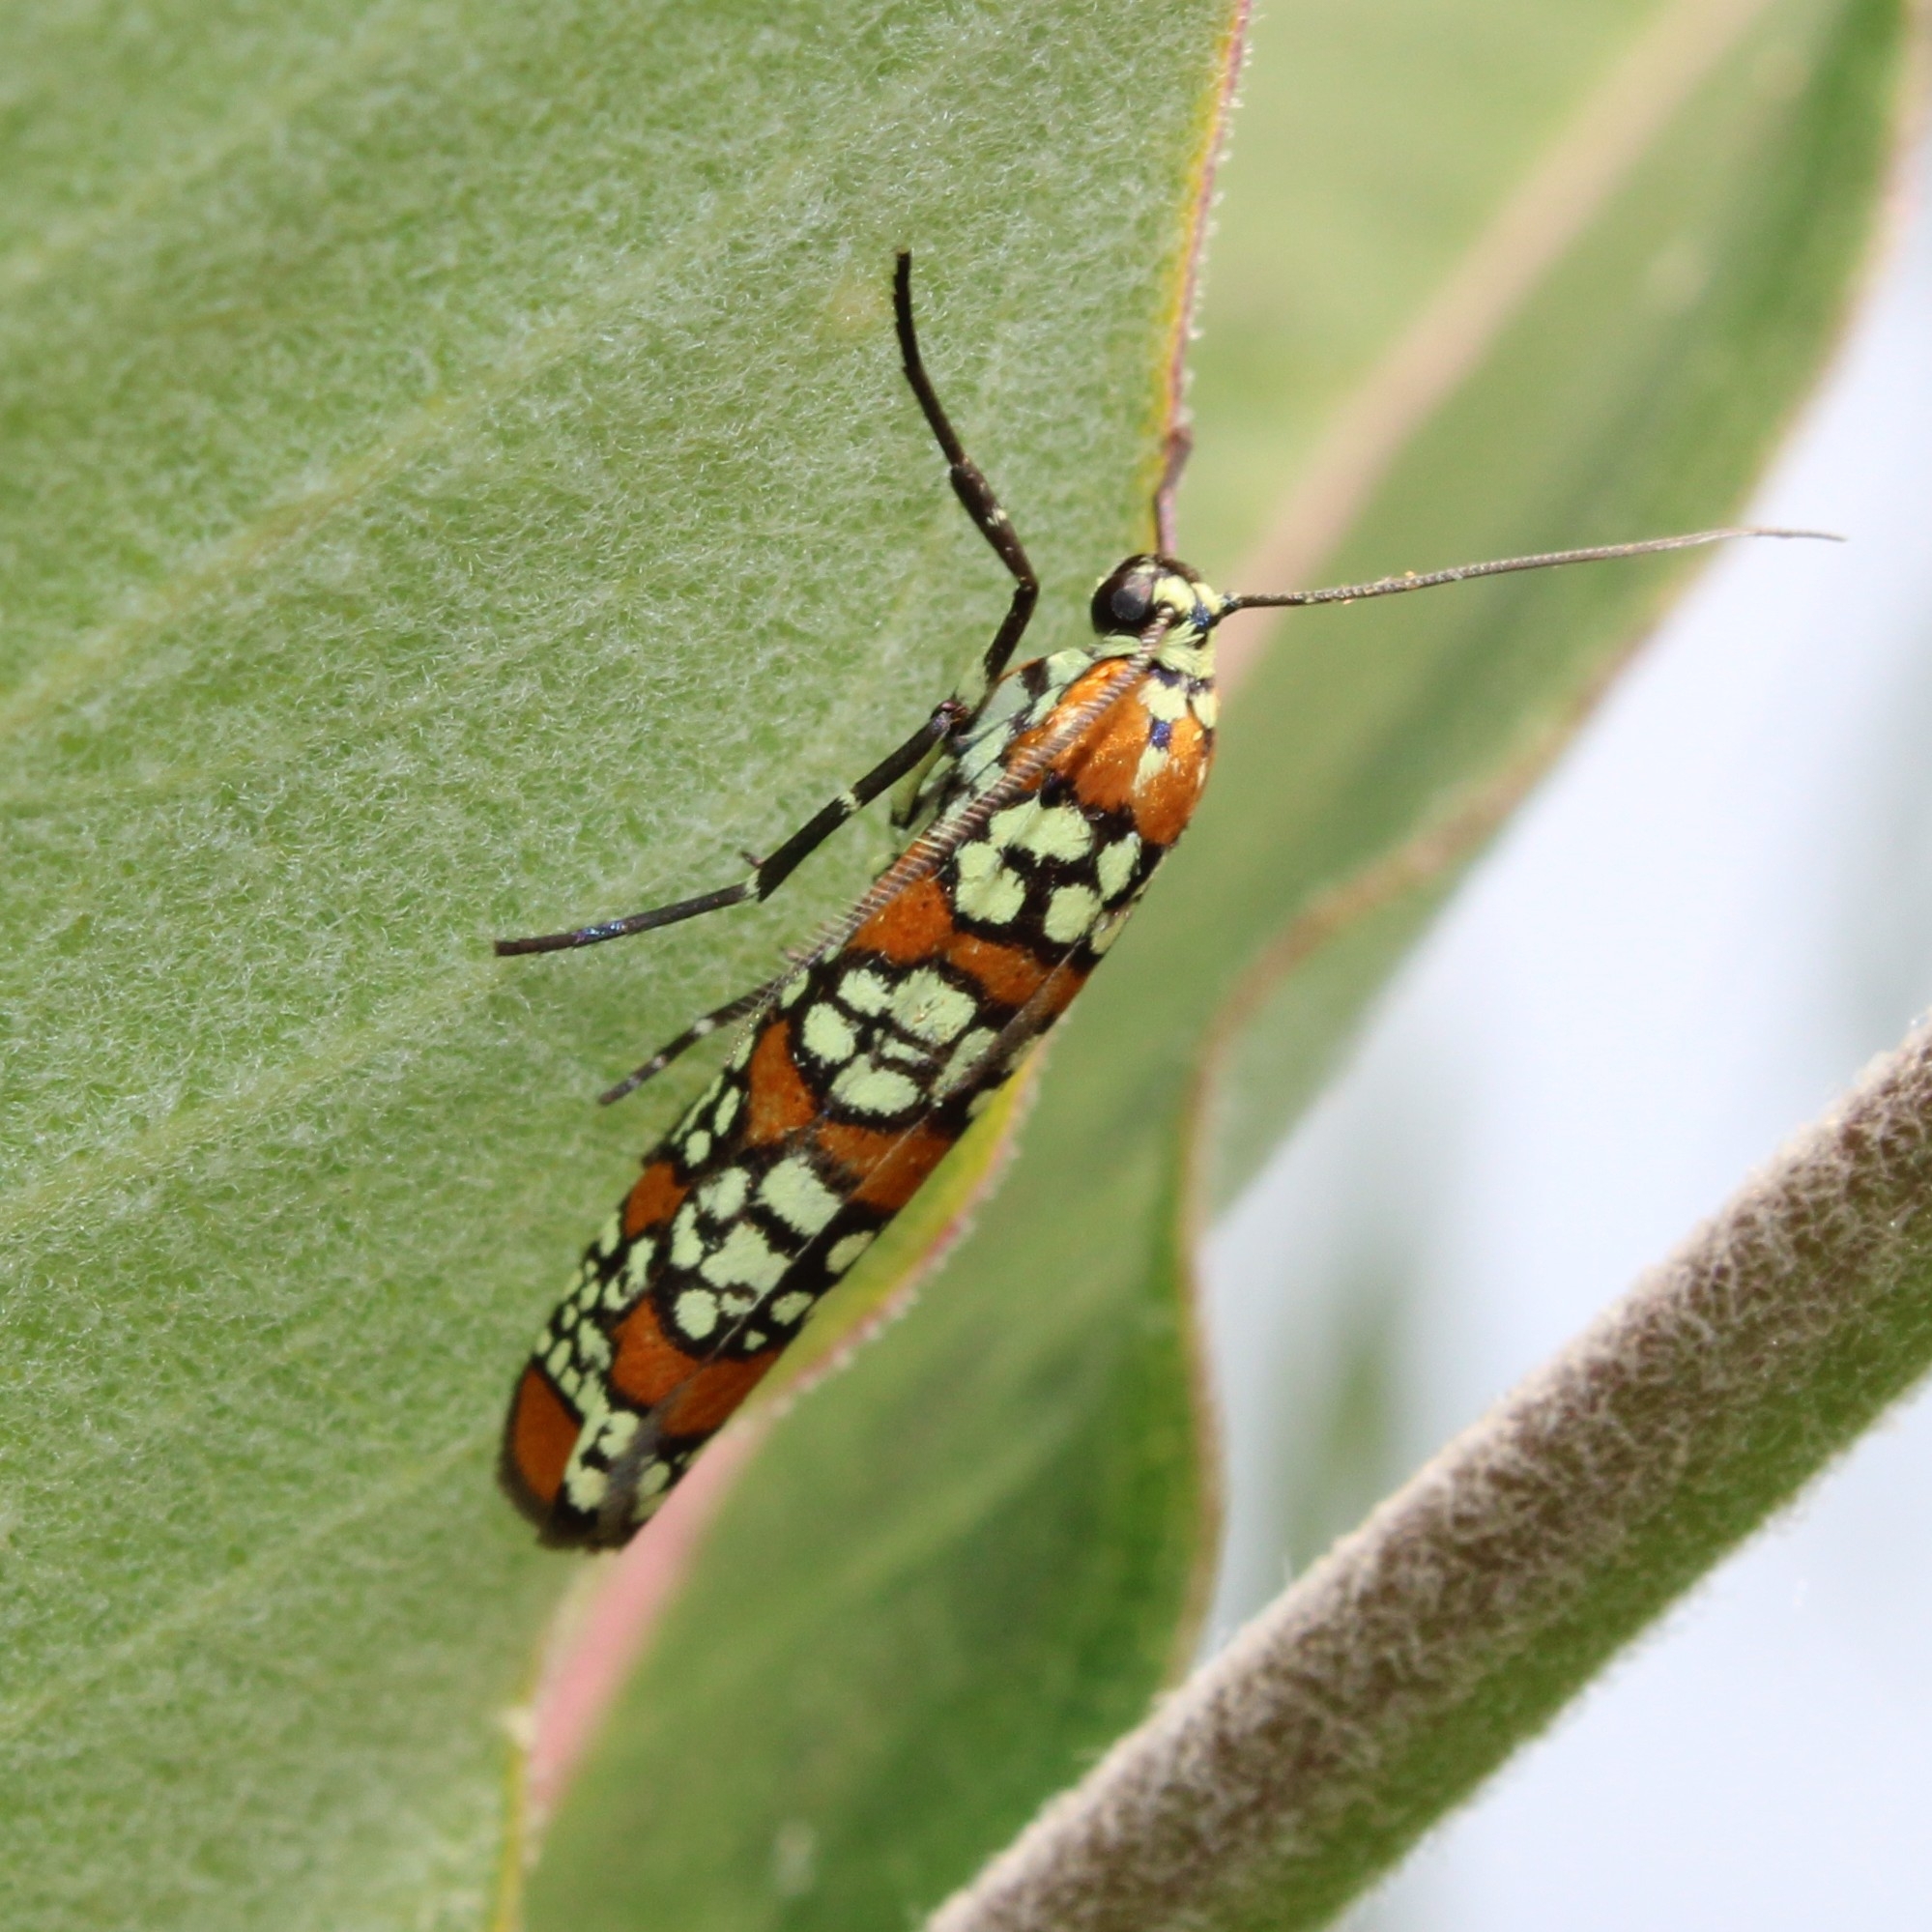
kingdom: Animalia
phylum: Arthropoda
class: Insecta
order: Lepidoptera
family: Attevidae
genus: Atteva
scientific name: Atteva punctella
